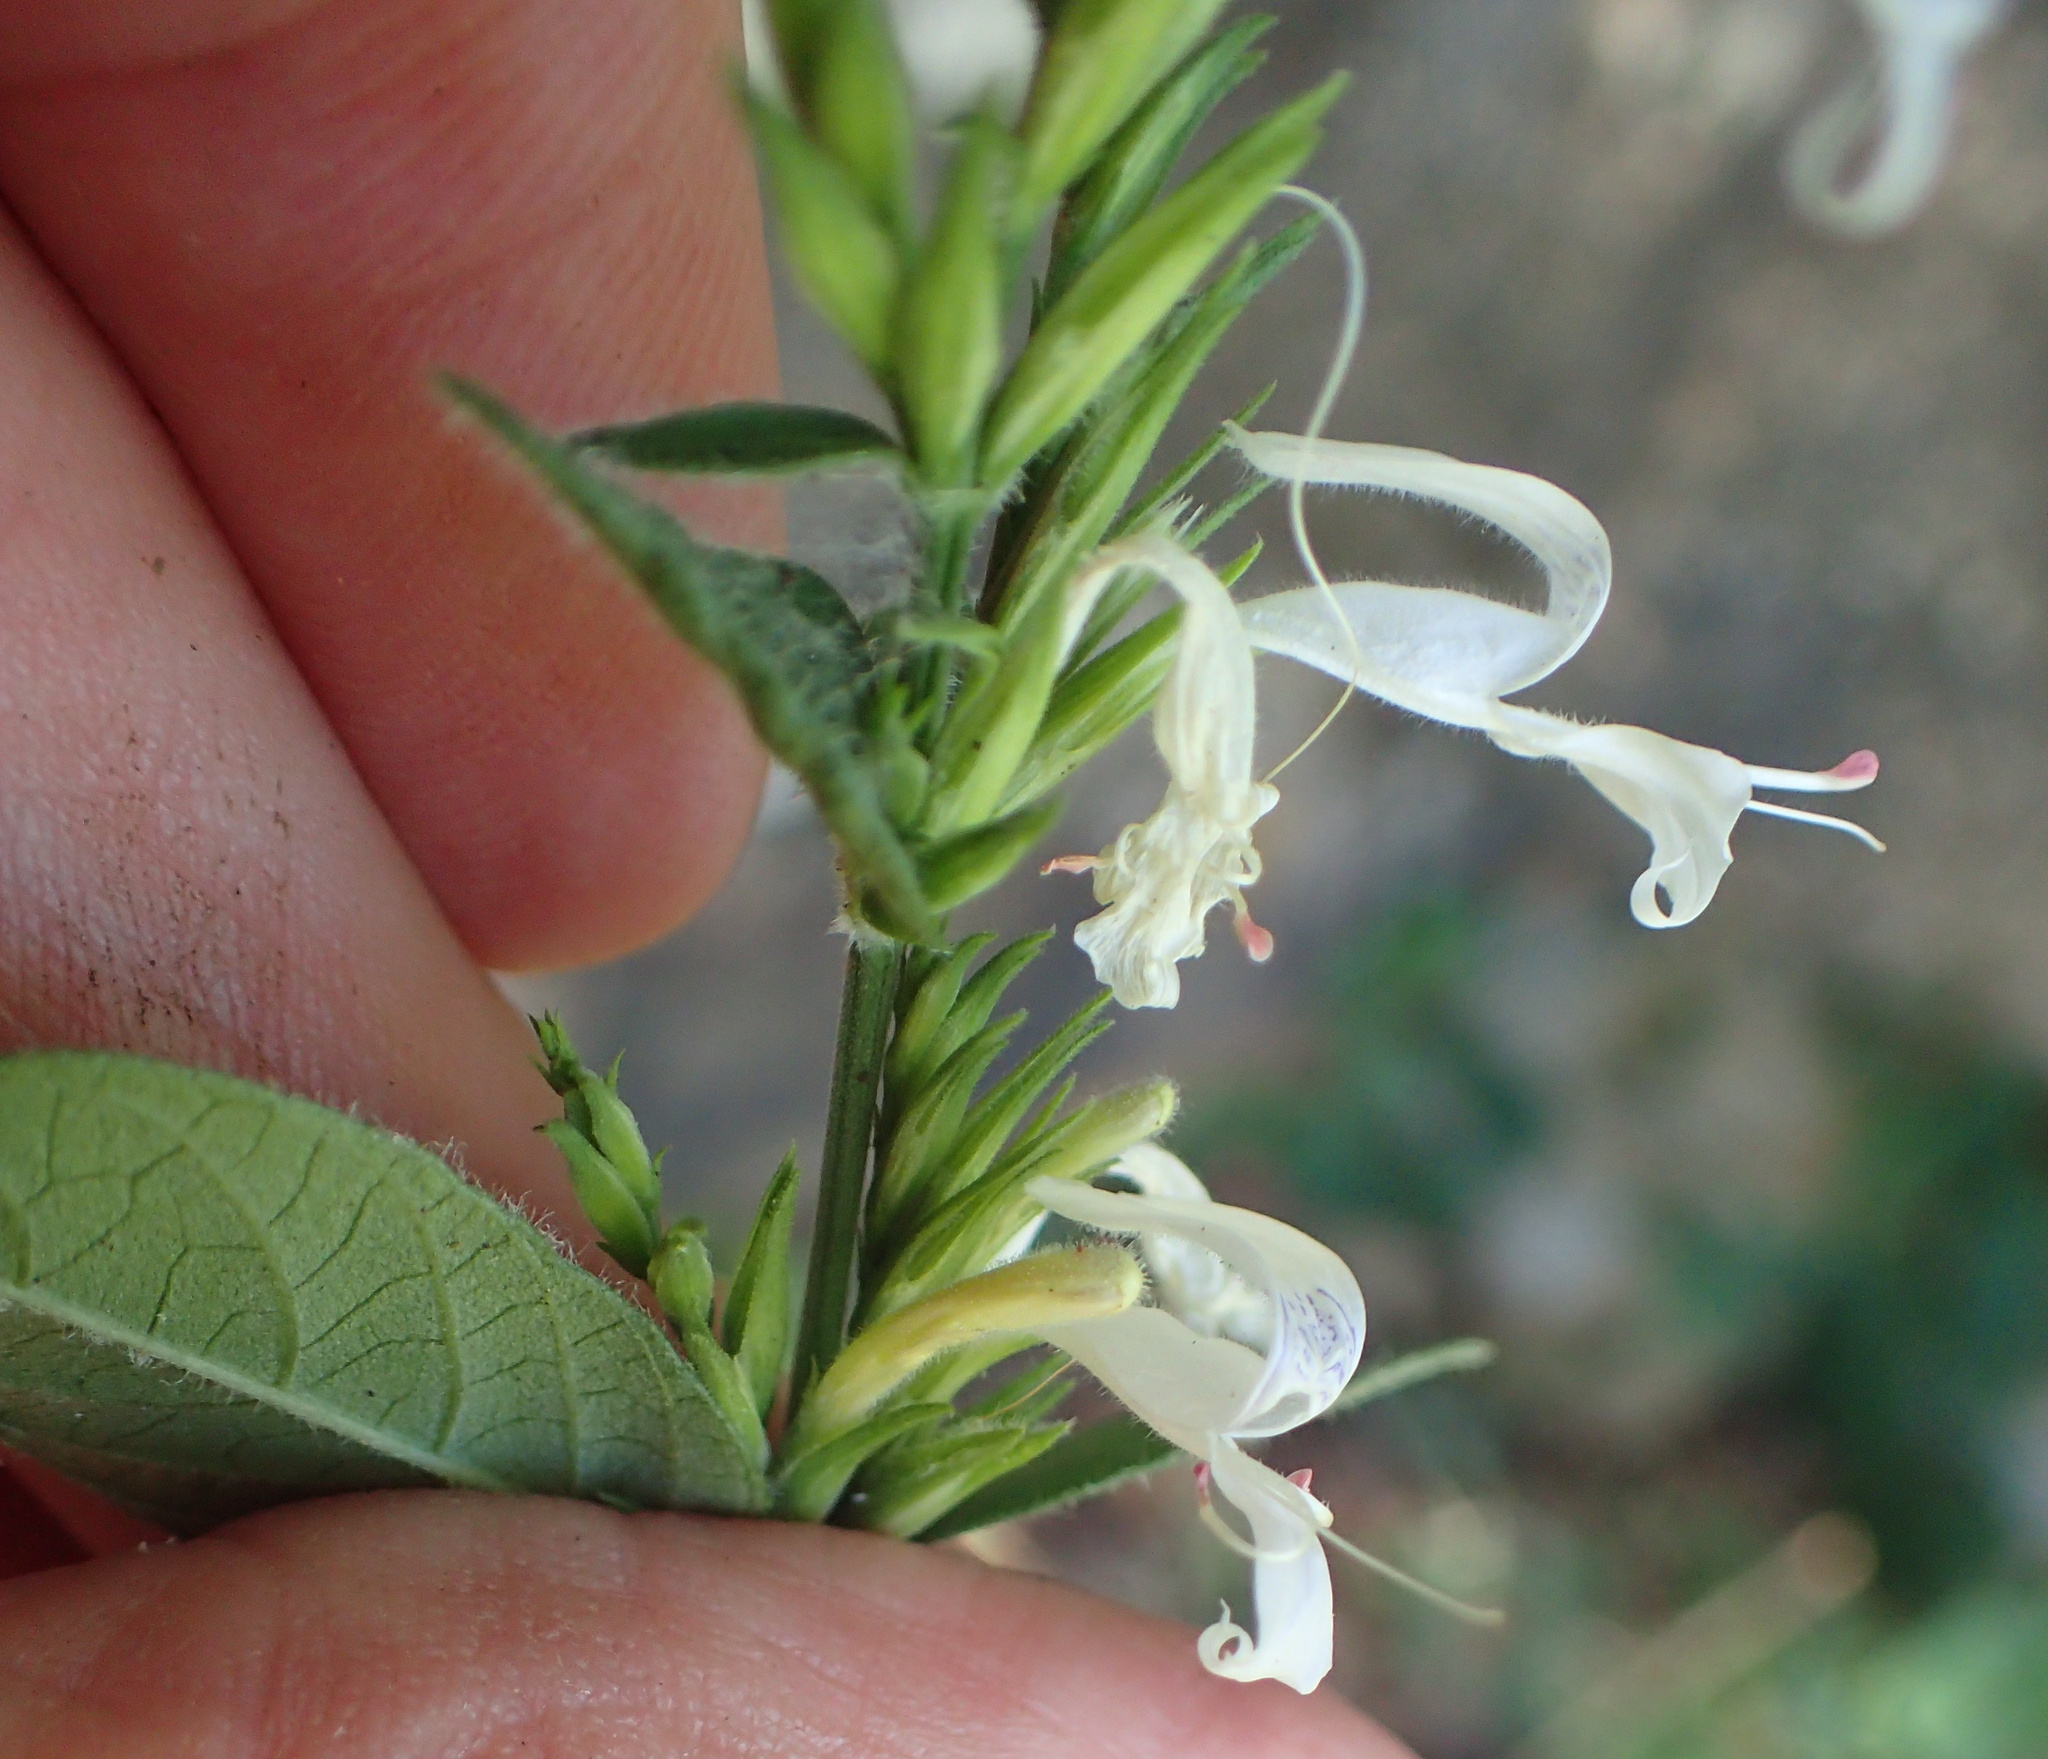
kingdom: Plantae
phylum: Tracheophyta
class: Magnoliopsida
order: Lamiales
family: Acanthaceae
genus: Hypoestes
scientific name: Hypoestes forskaolii
